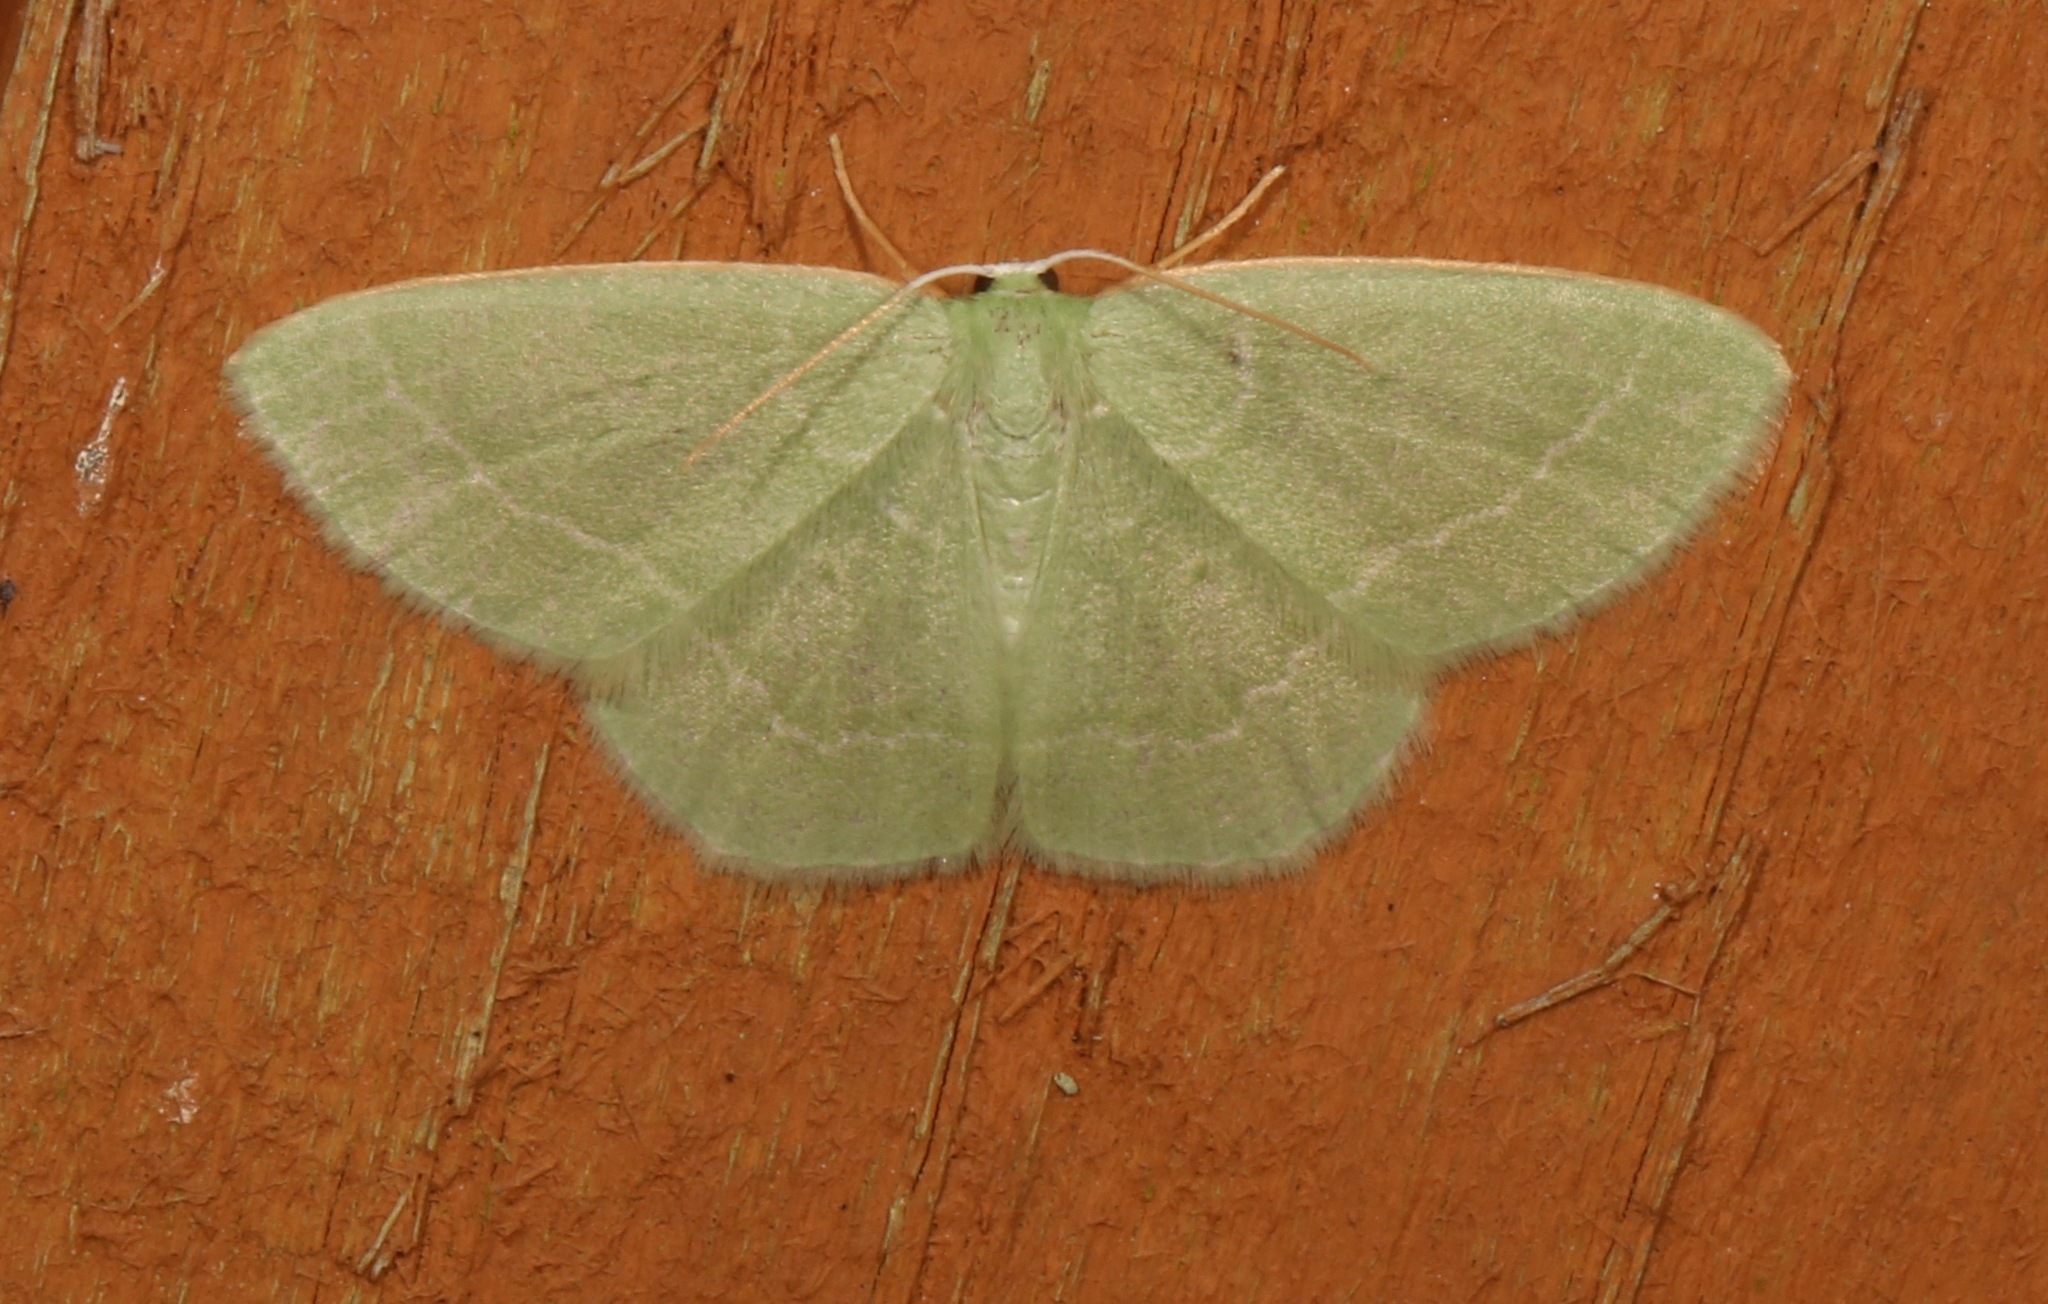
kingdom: Animalia
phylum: Arthropoda
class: Insecta
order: Lepidoptera
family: Geometridae
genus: Nemoria
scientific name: Nemoria elfa
